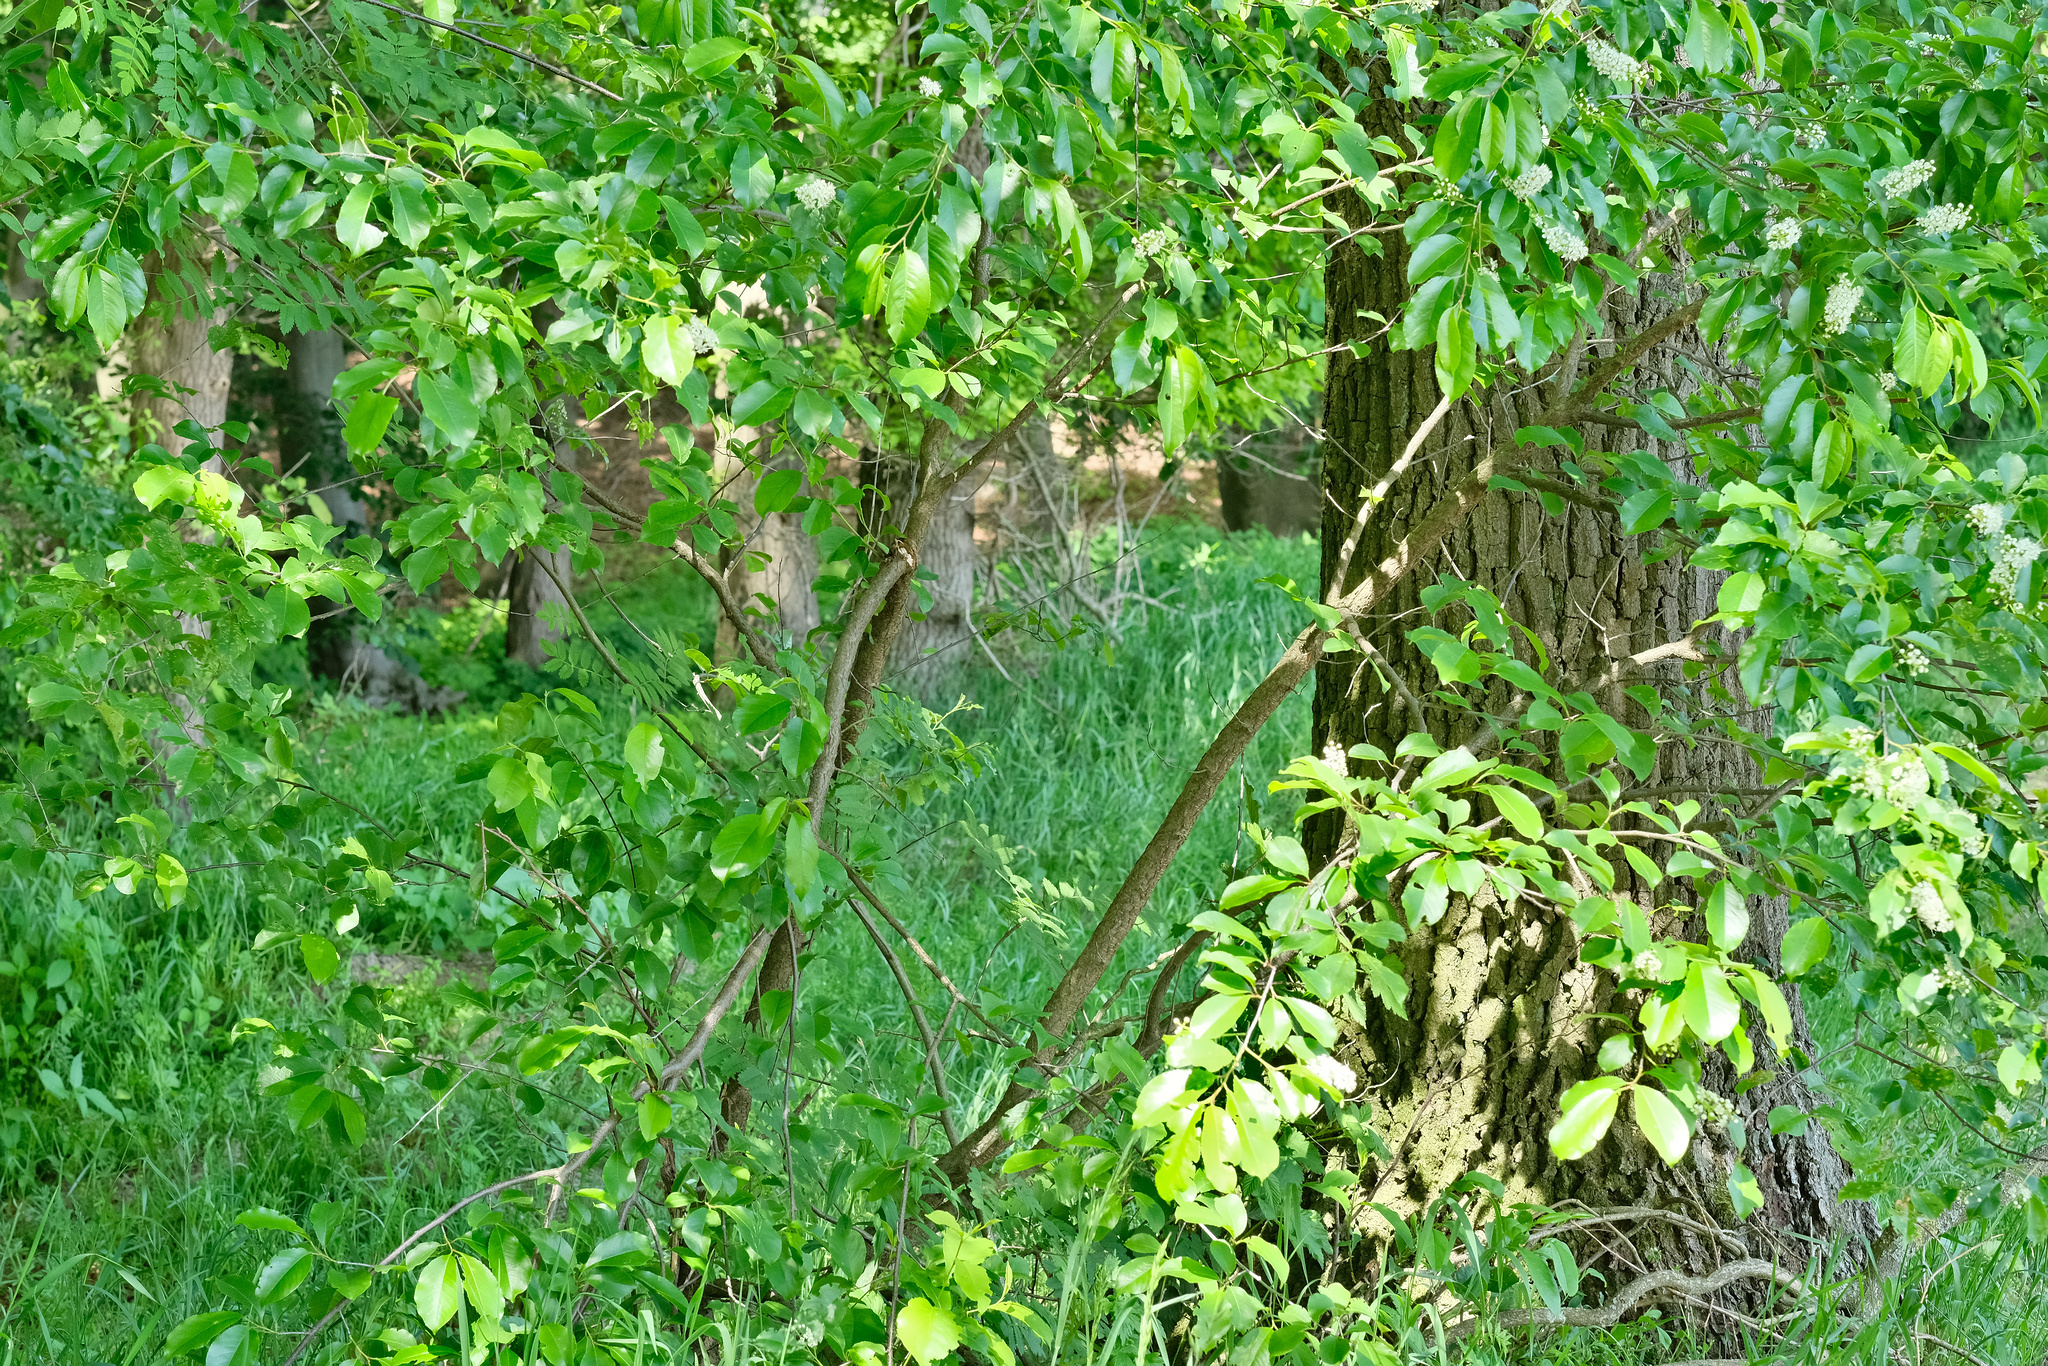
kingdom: Plantae
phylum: Tracheophyta
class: Magnoliopsida
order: Rosales
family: Rosaceae
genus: Prunus
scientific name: Prunus serotina
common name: Black cherry
